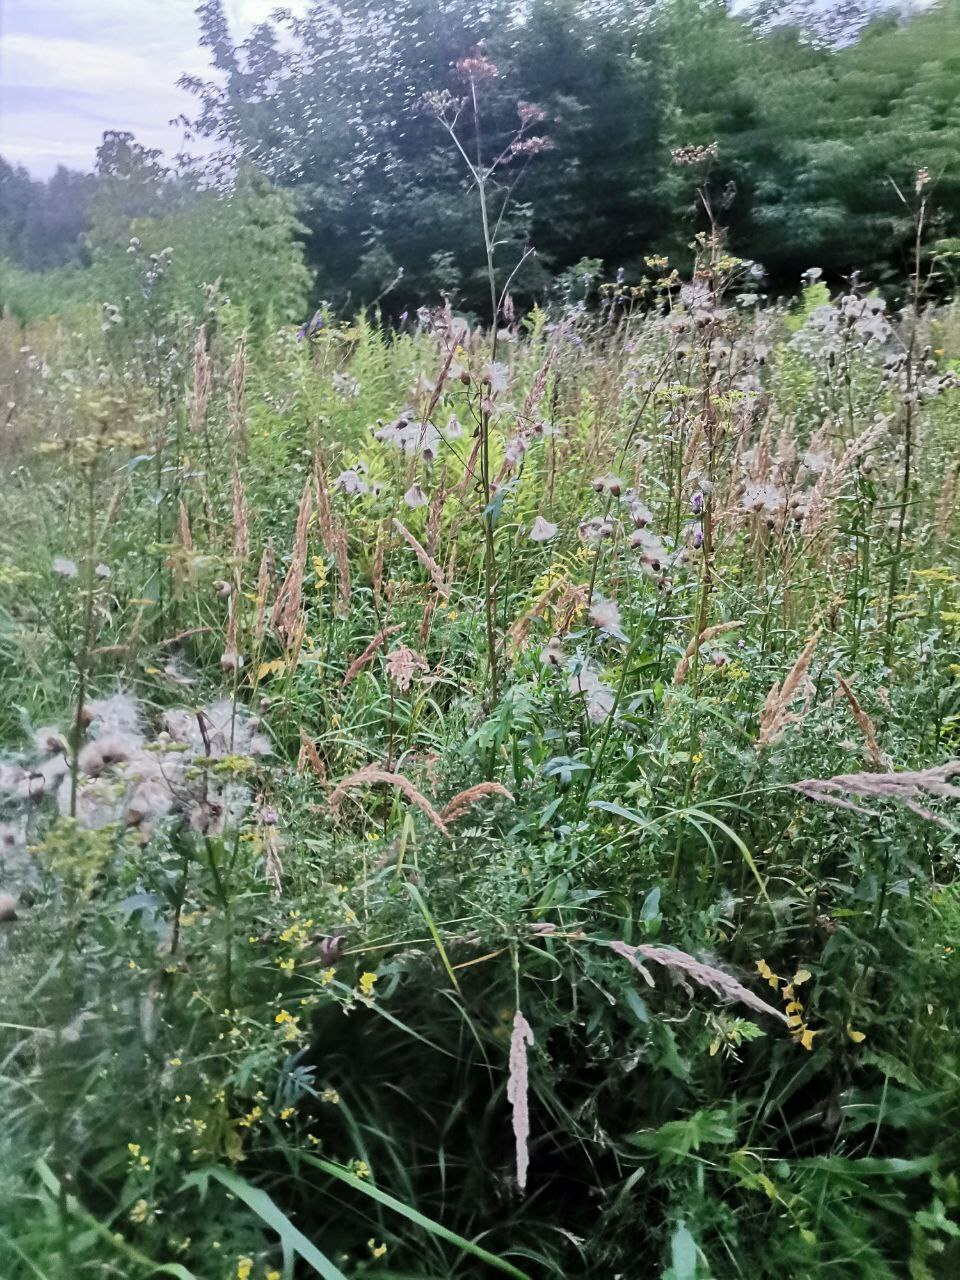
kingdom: Plantae
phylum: Tracheophyta
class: Magnoliopsida
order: Asterales
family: Asteraceae
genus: Cirsium
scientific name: Cirsium arvense
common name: Creeping thistle
